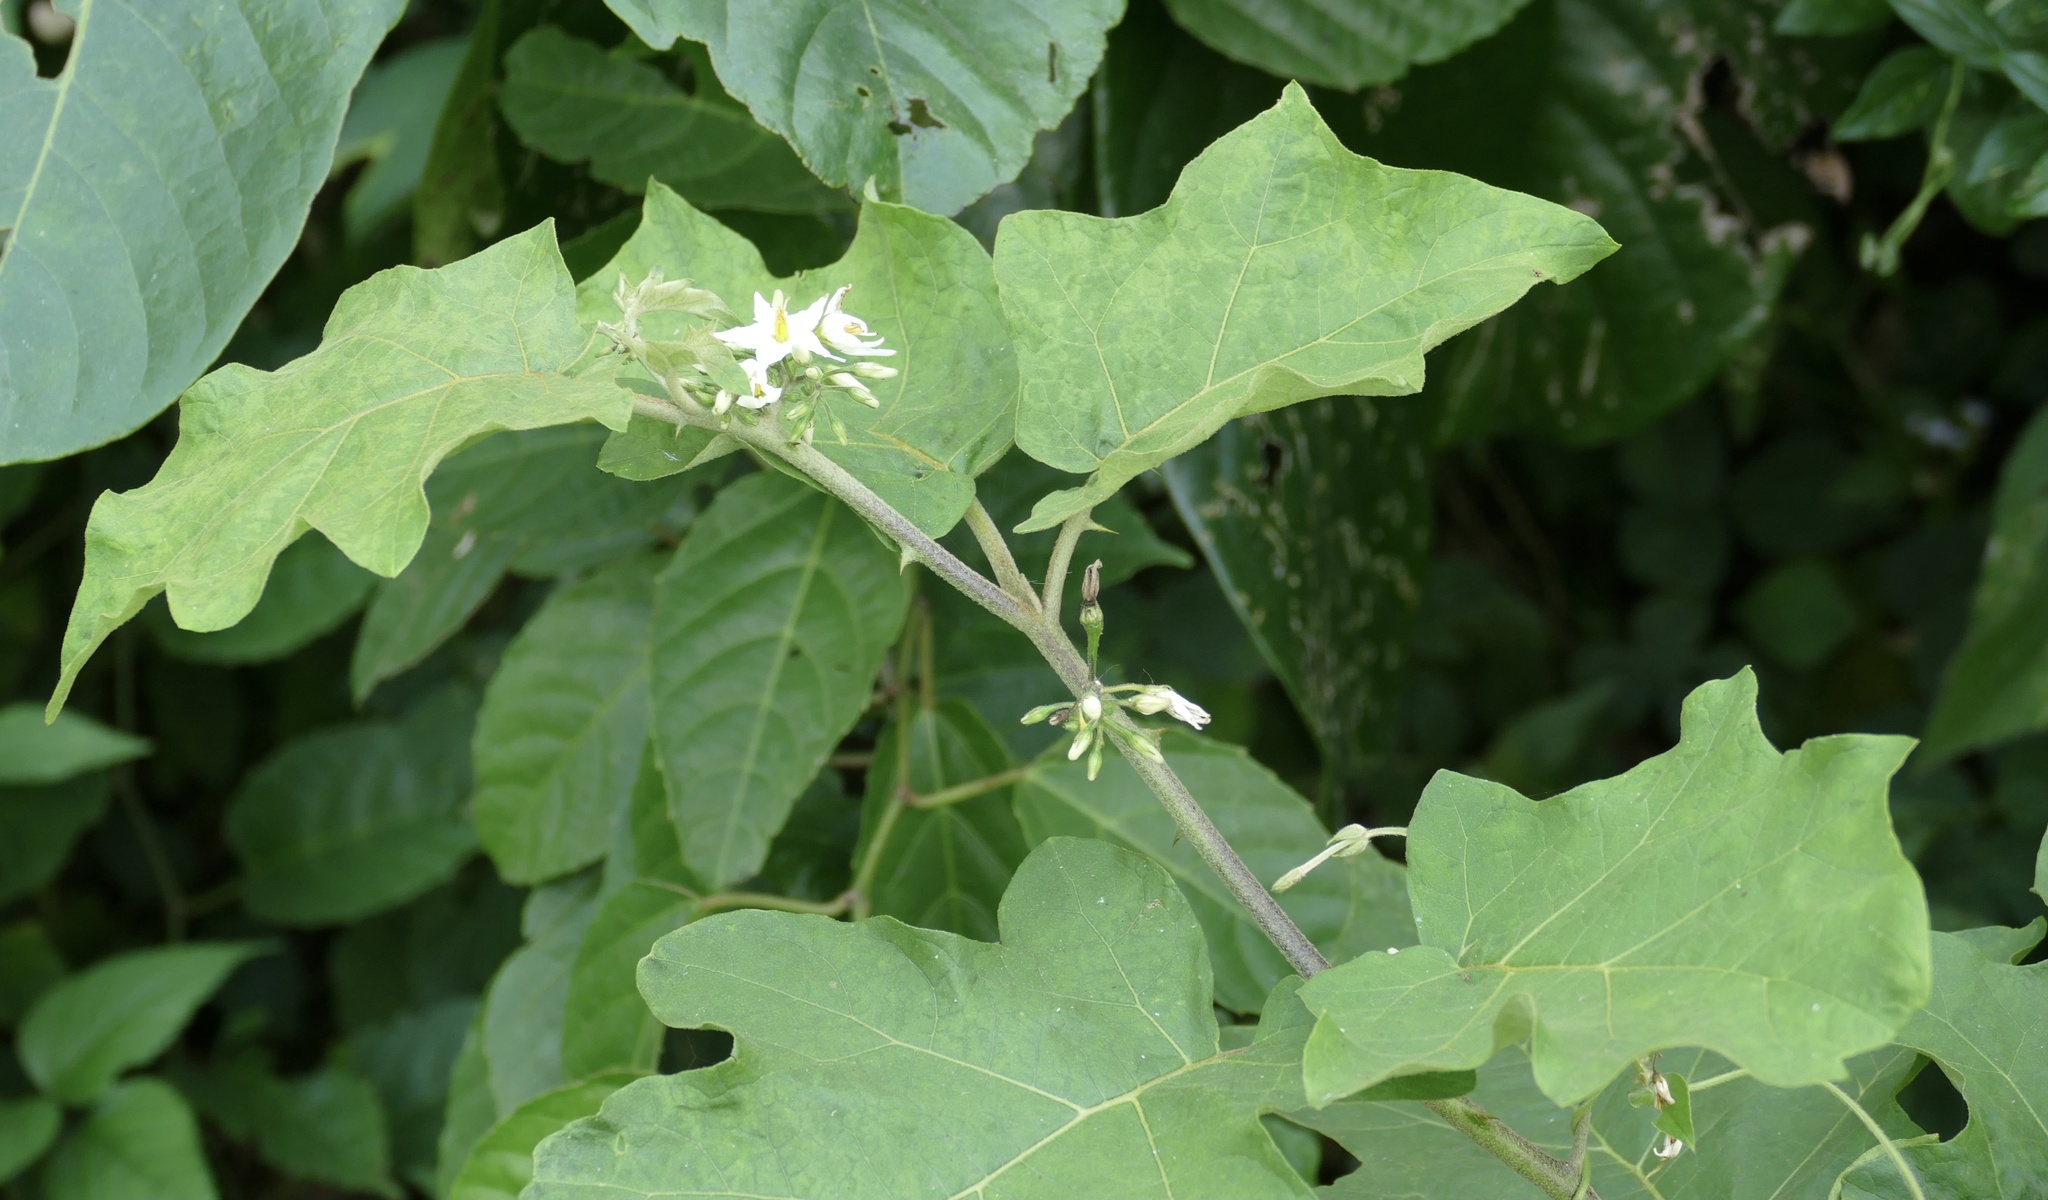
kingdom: Plantae
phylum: Tracheophyta
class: Magnoliopsida
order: Solanales
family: Solanaceae
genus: Solanum
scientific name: Solanum torvum
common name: Turkey berry
